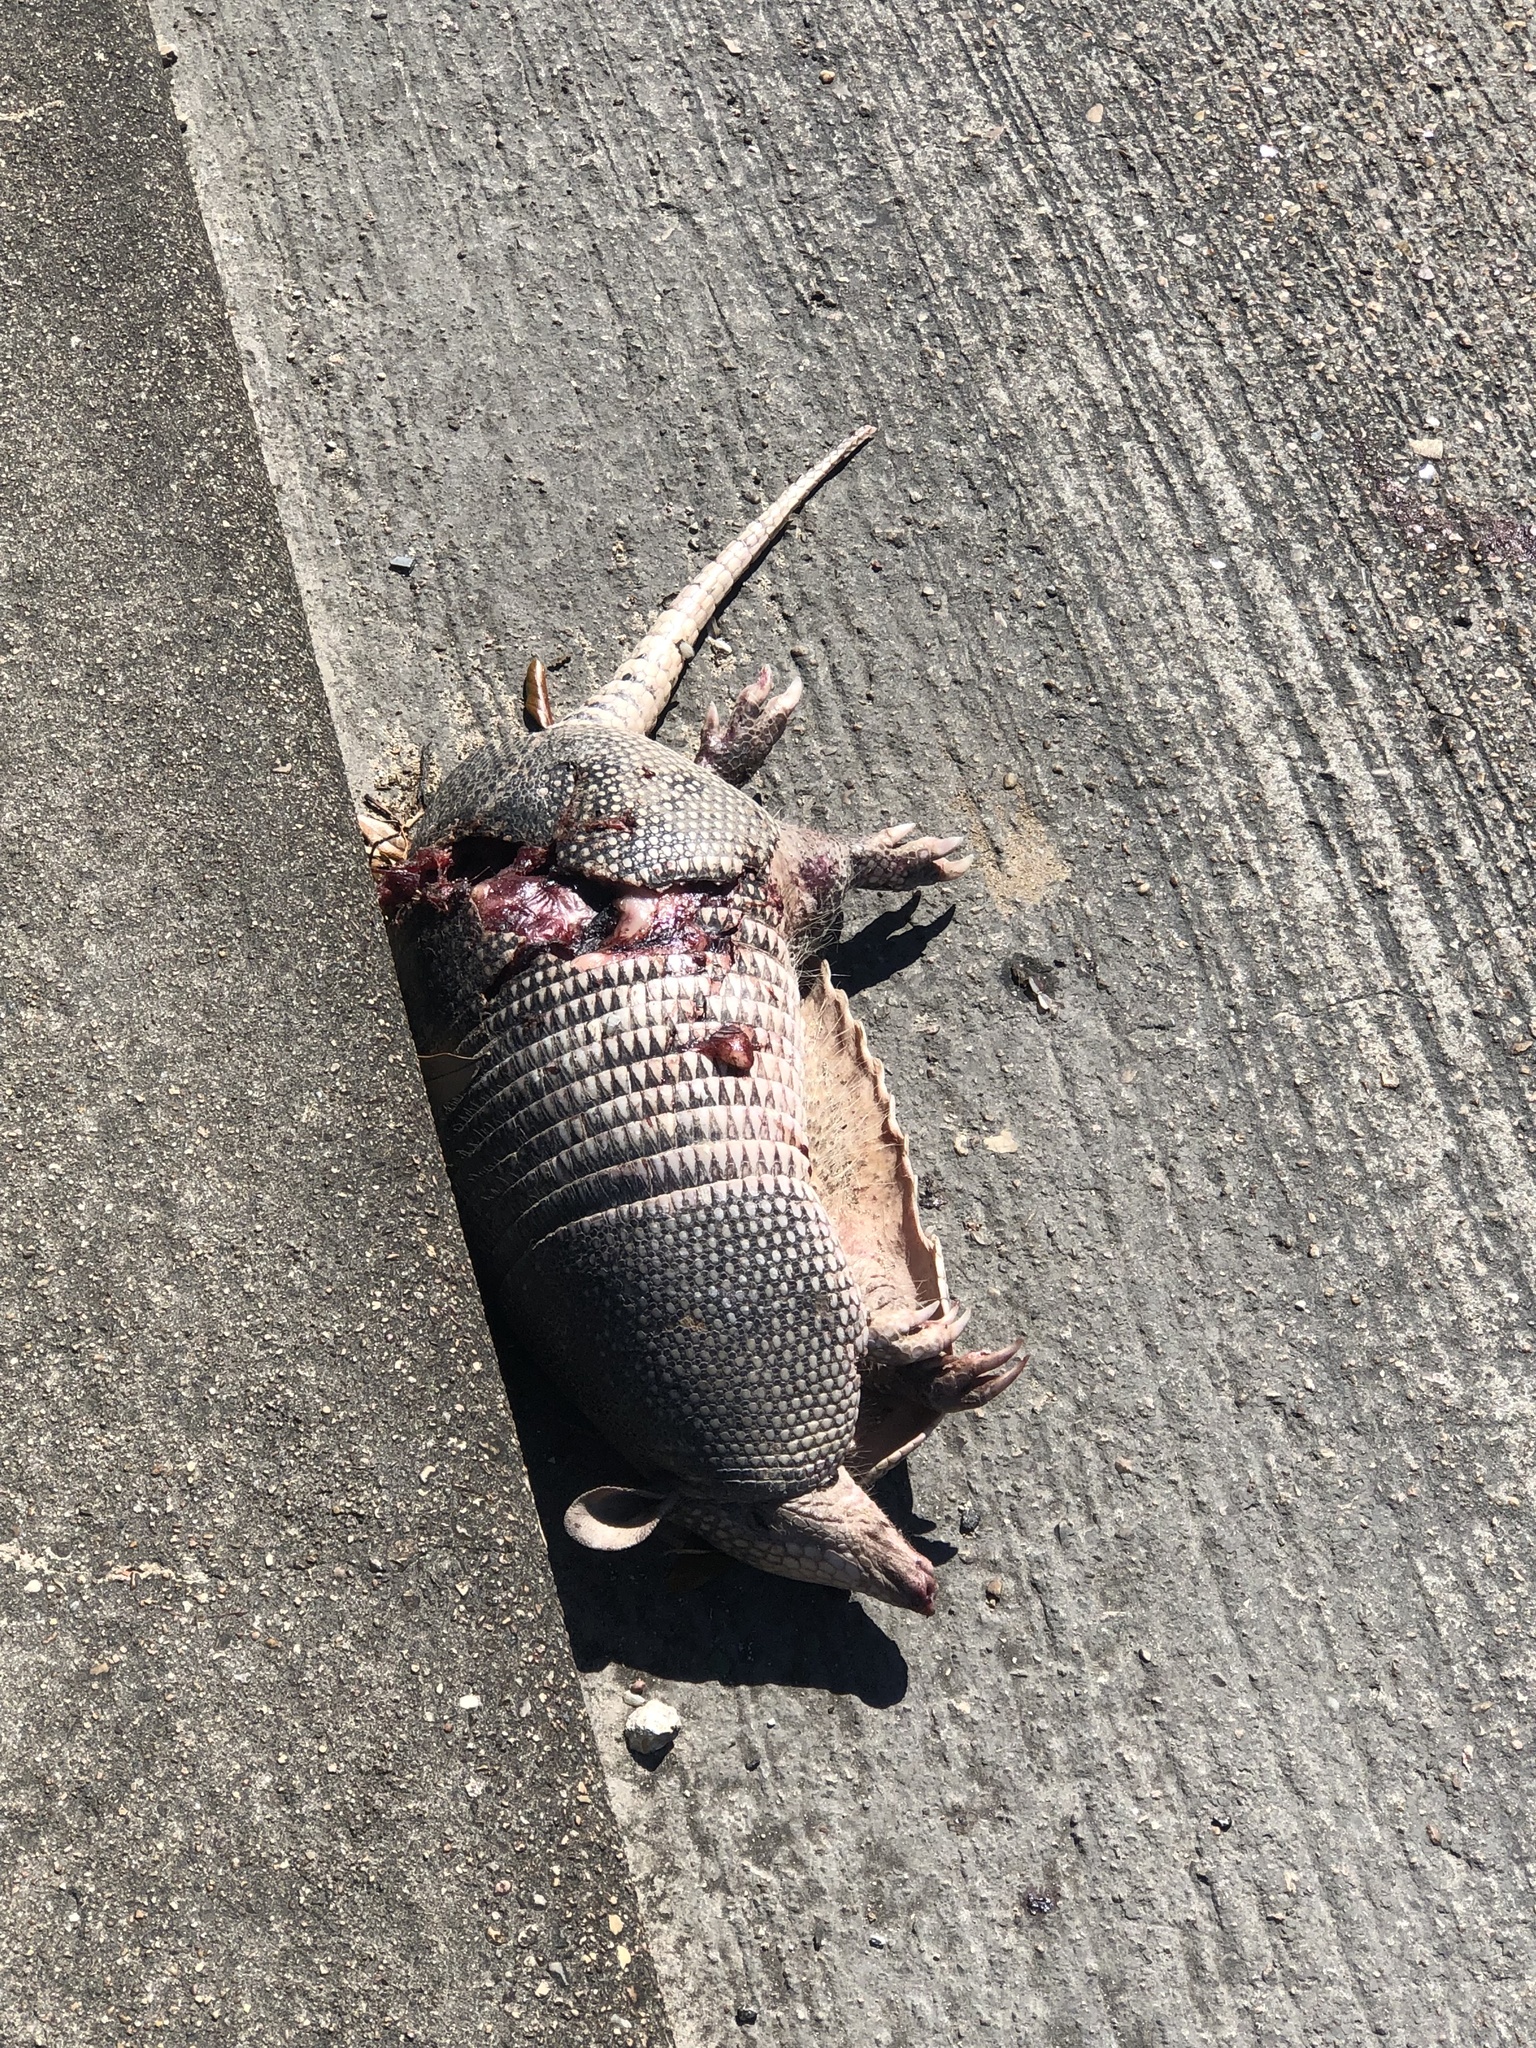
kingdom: Animalia
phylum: Chordata
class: Mammalia
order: Cingulata
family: Dasypodidae
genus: Dasypus
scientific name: Dasypus novemcinctus
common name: Nine-banded armadillo
